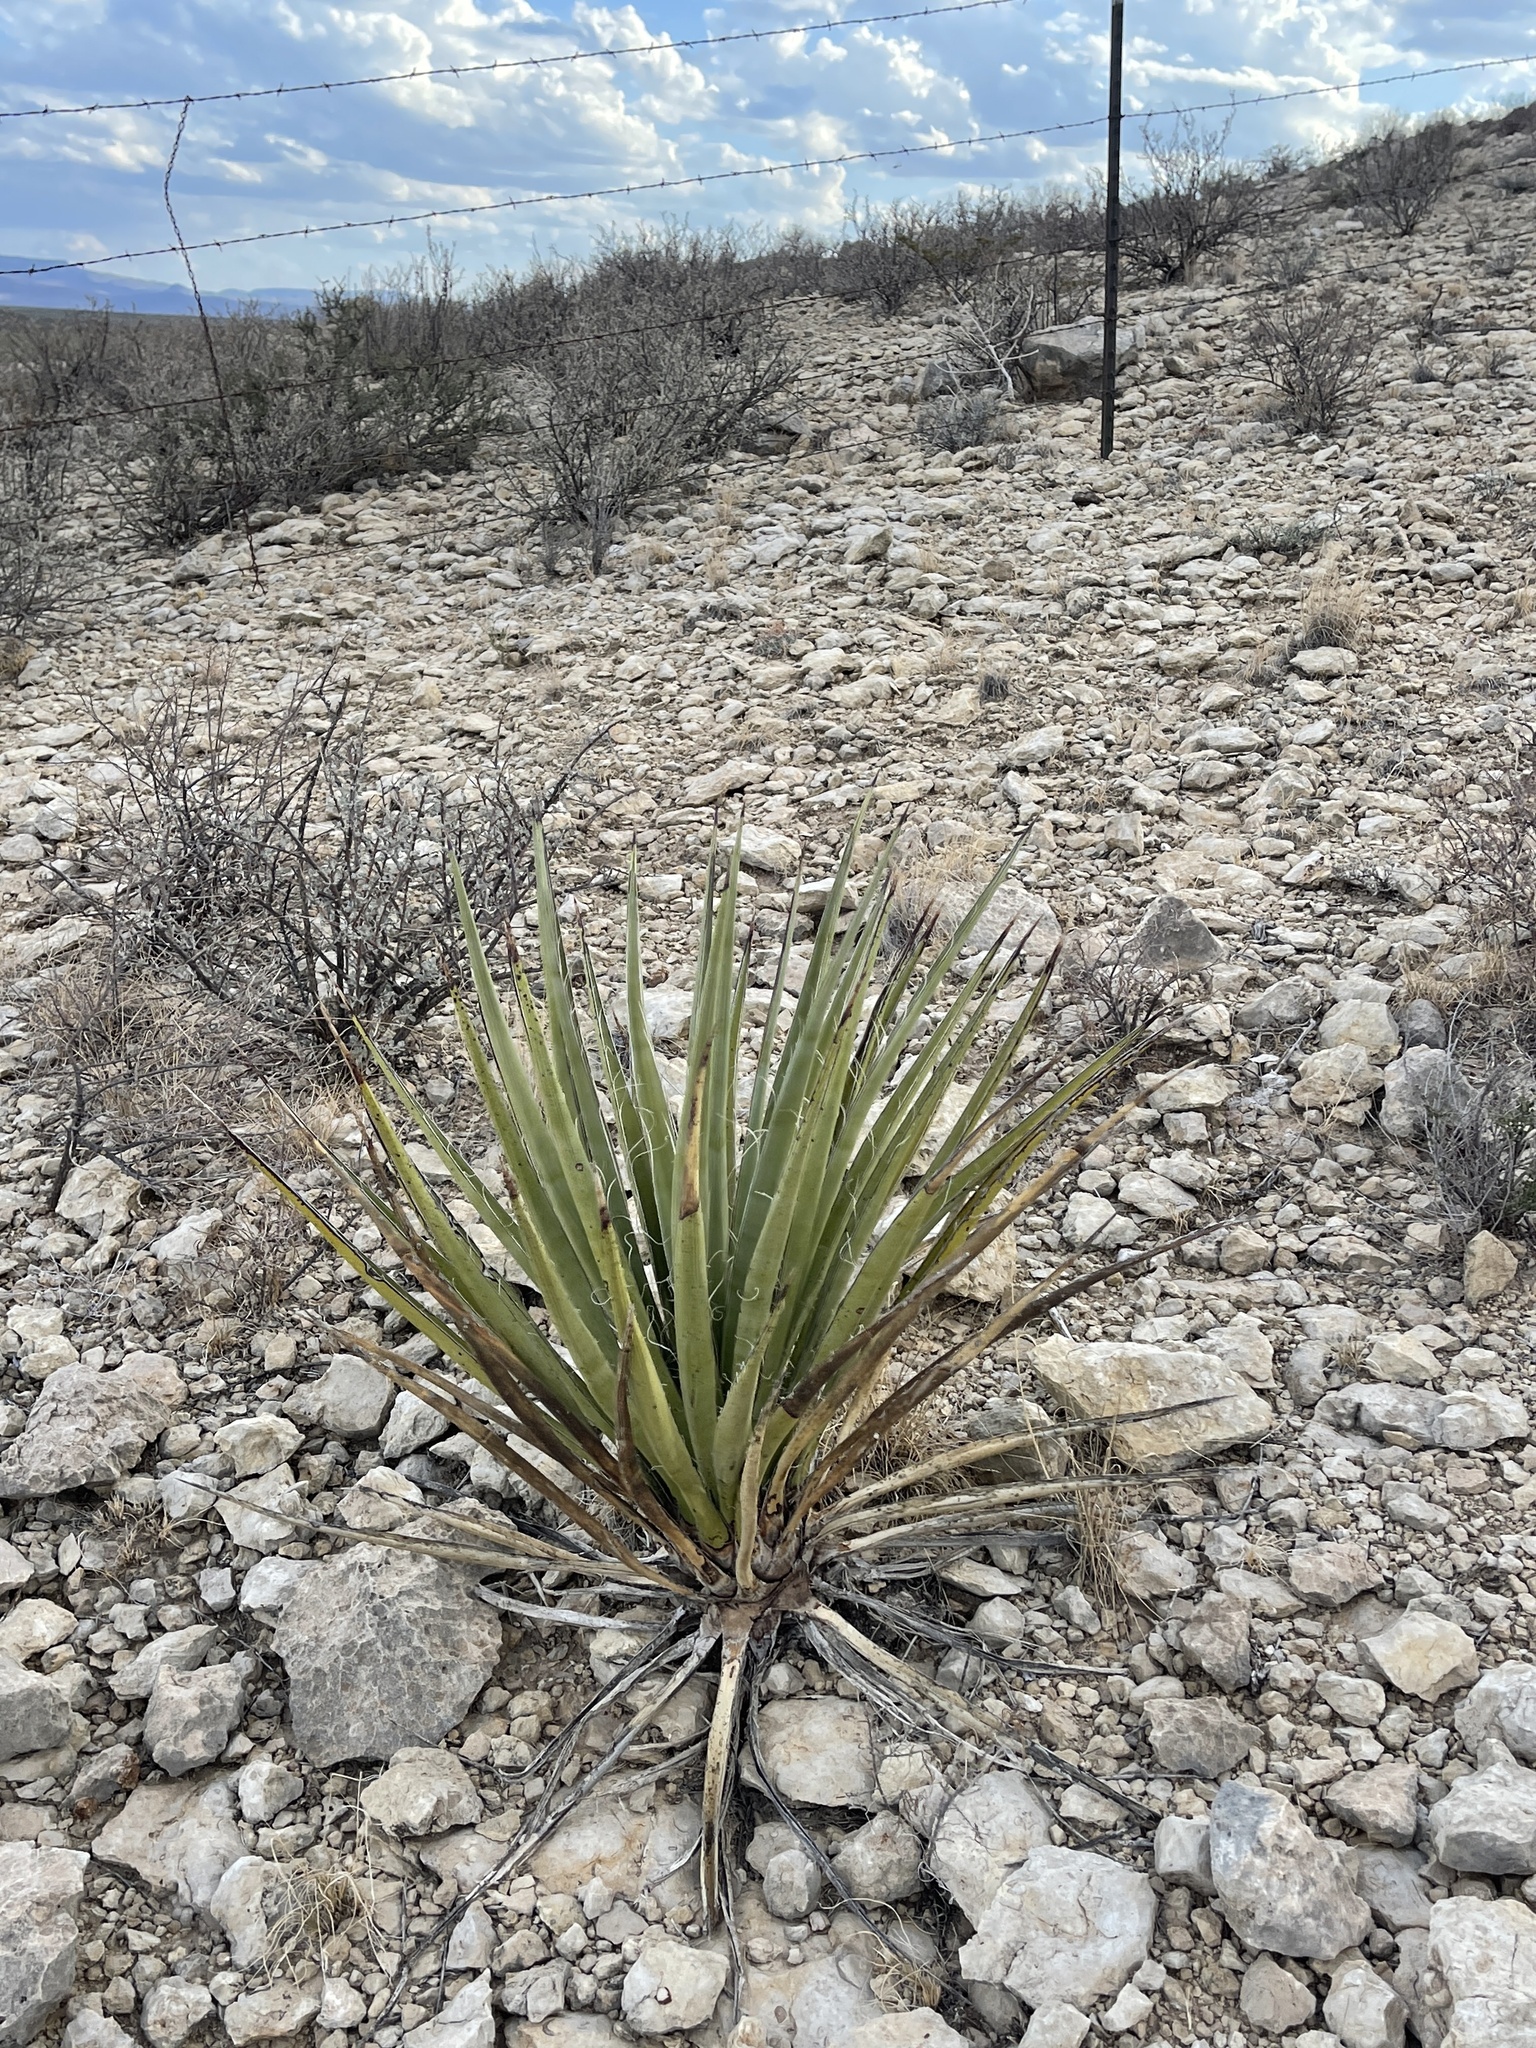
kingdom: Plantae
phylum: Tracheophyta
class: Liliopsida
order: Asparagales
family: Asparagaceae
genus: Agave
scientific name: Agave lechuguilla
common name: Lecheguilla agave
